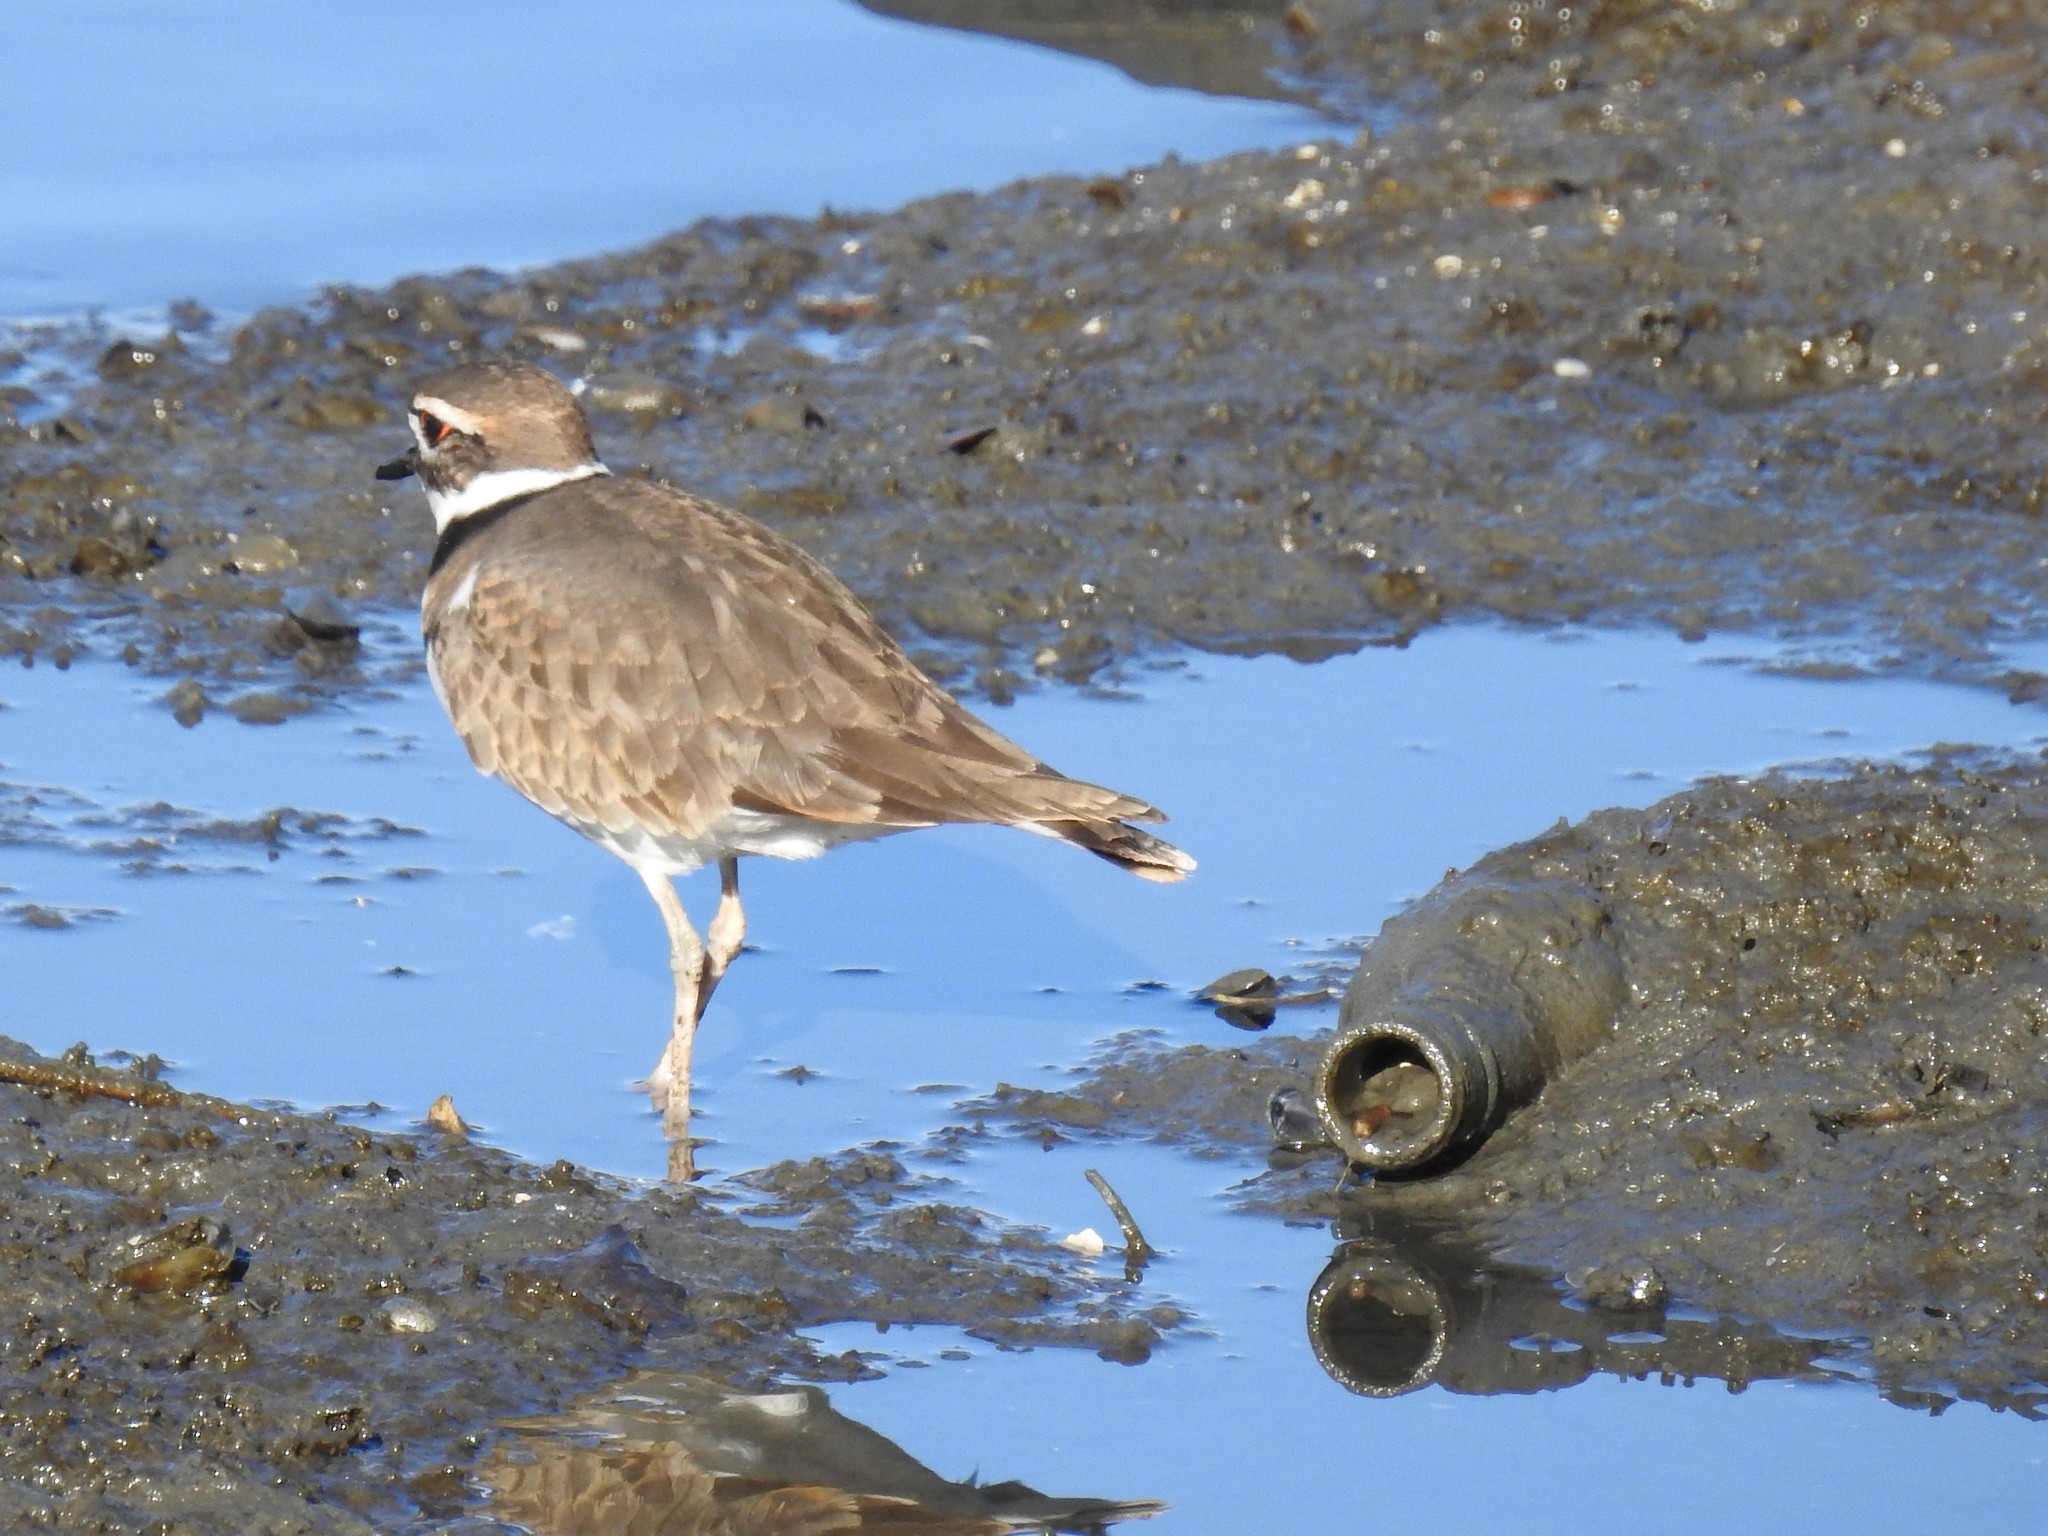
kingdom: Animalia
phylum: Chordata
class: Aves
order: Charadriiformes
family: Charadriidae
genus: Charadrius
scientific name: Charadrius vociferus
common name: Killdeer
